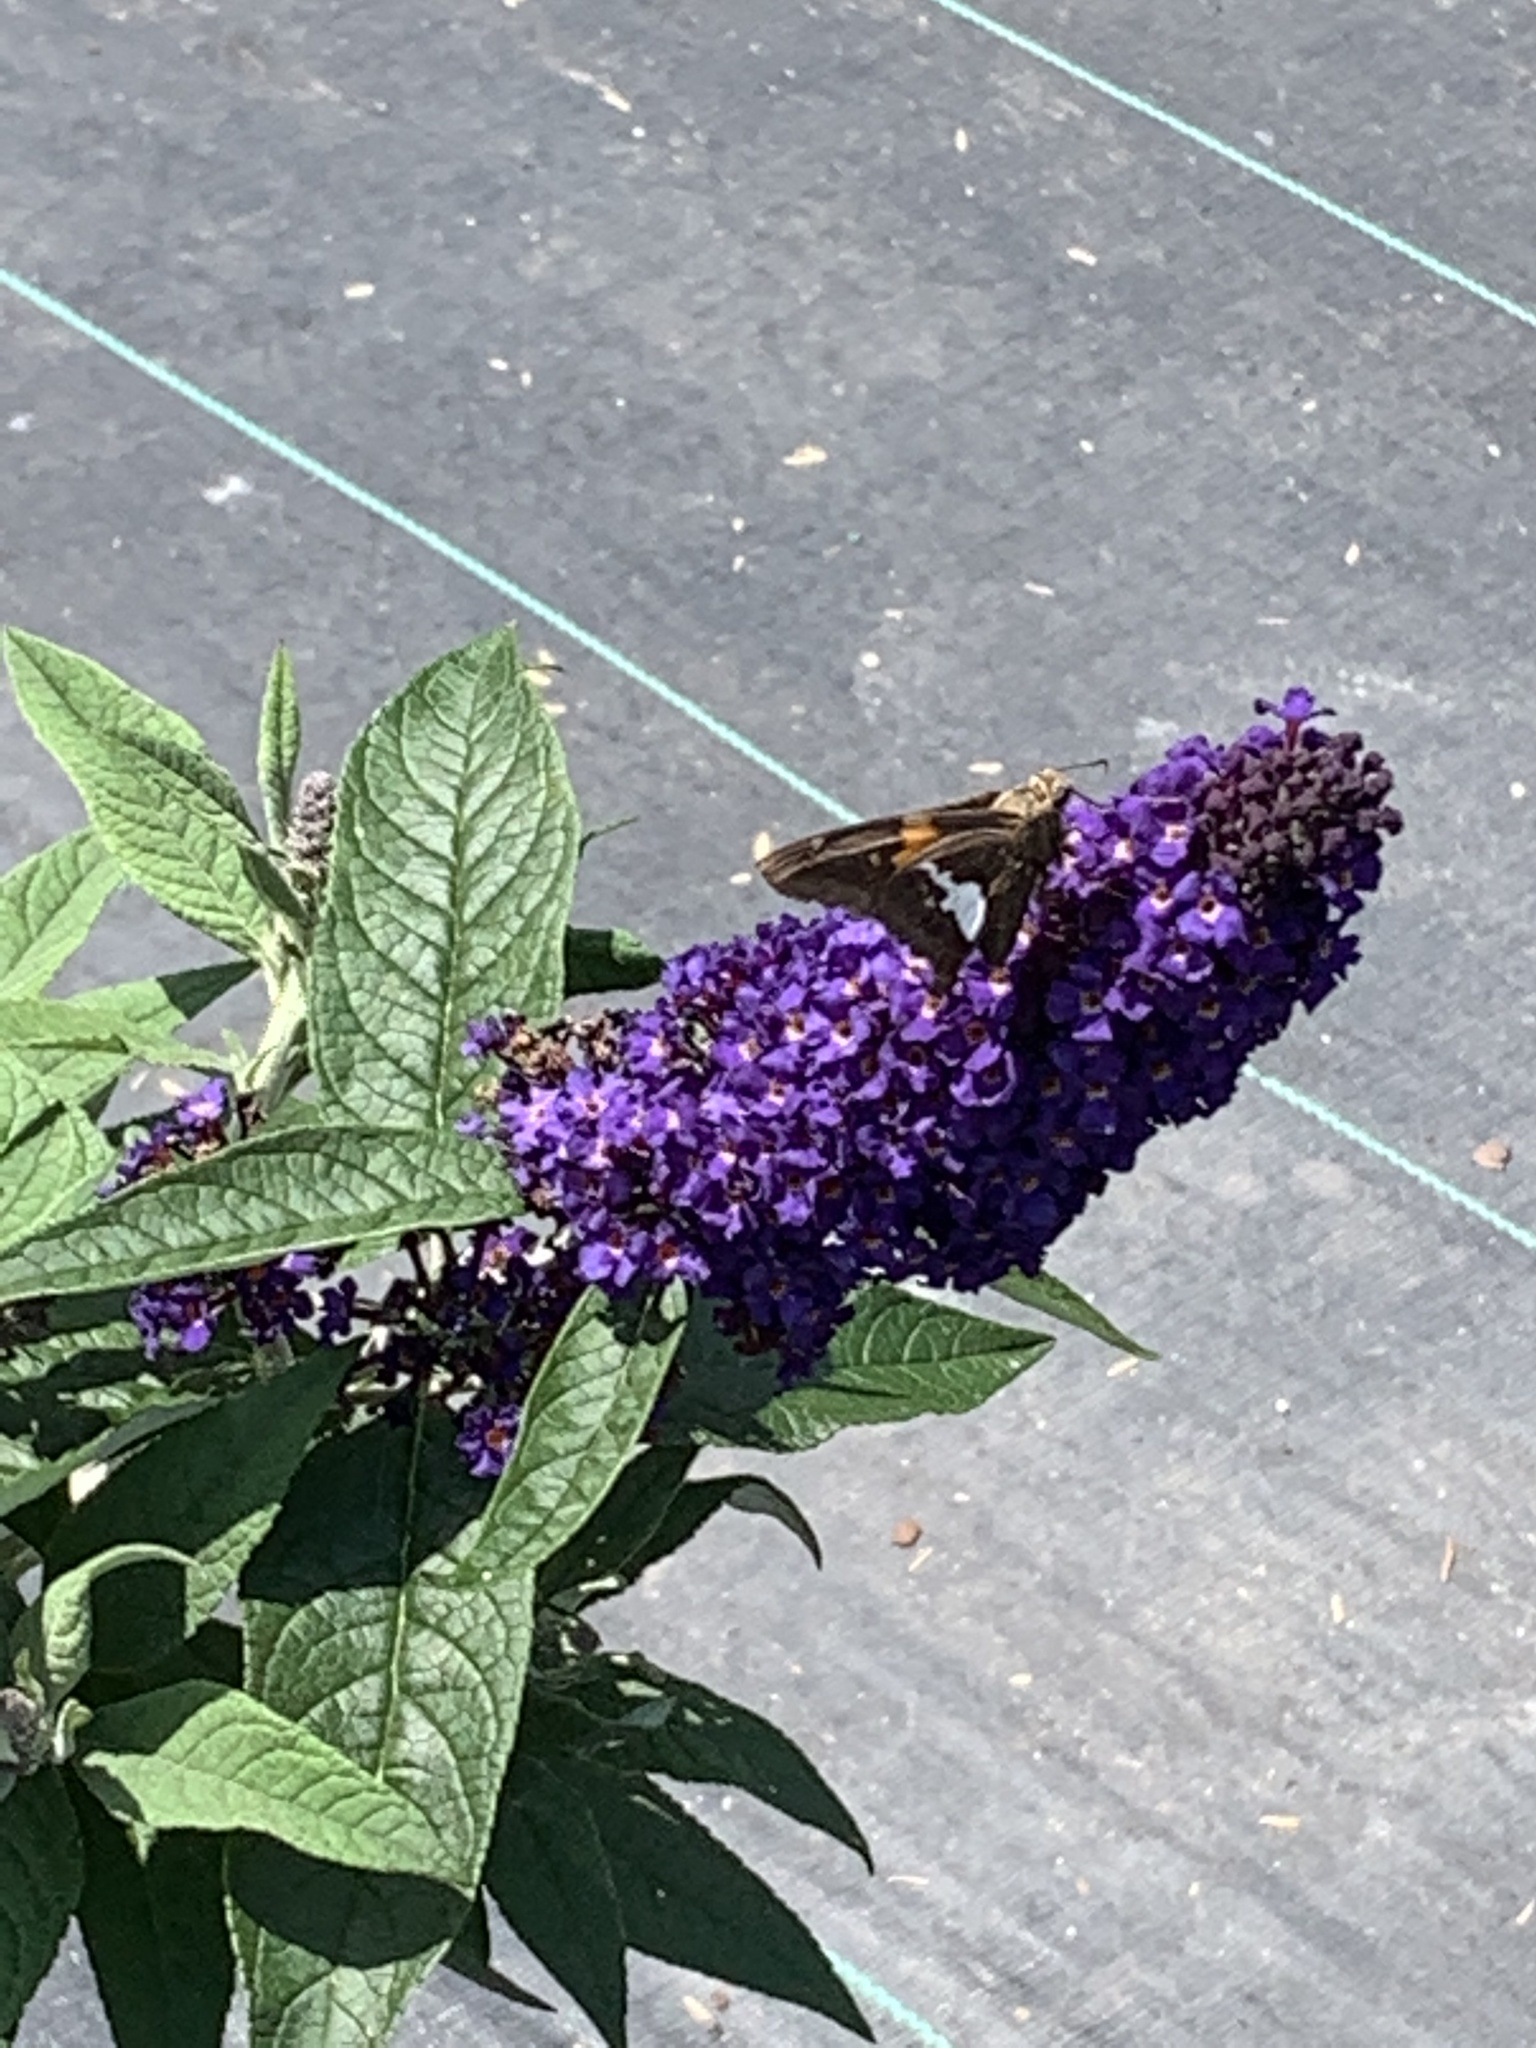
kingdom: Animalia
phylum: Arthropoda
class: Insecta
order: Lepidoptera
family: Hesperiidae
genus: Epargyreus
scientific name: Epargyreus clarus
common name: Silver-spotted skipper
